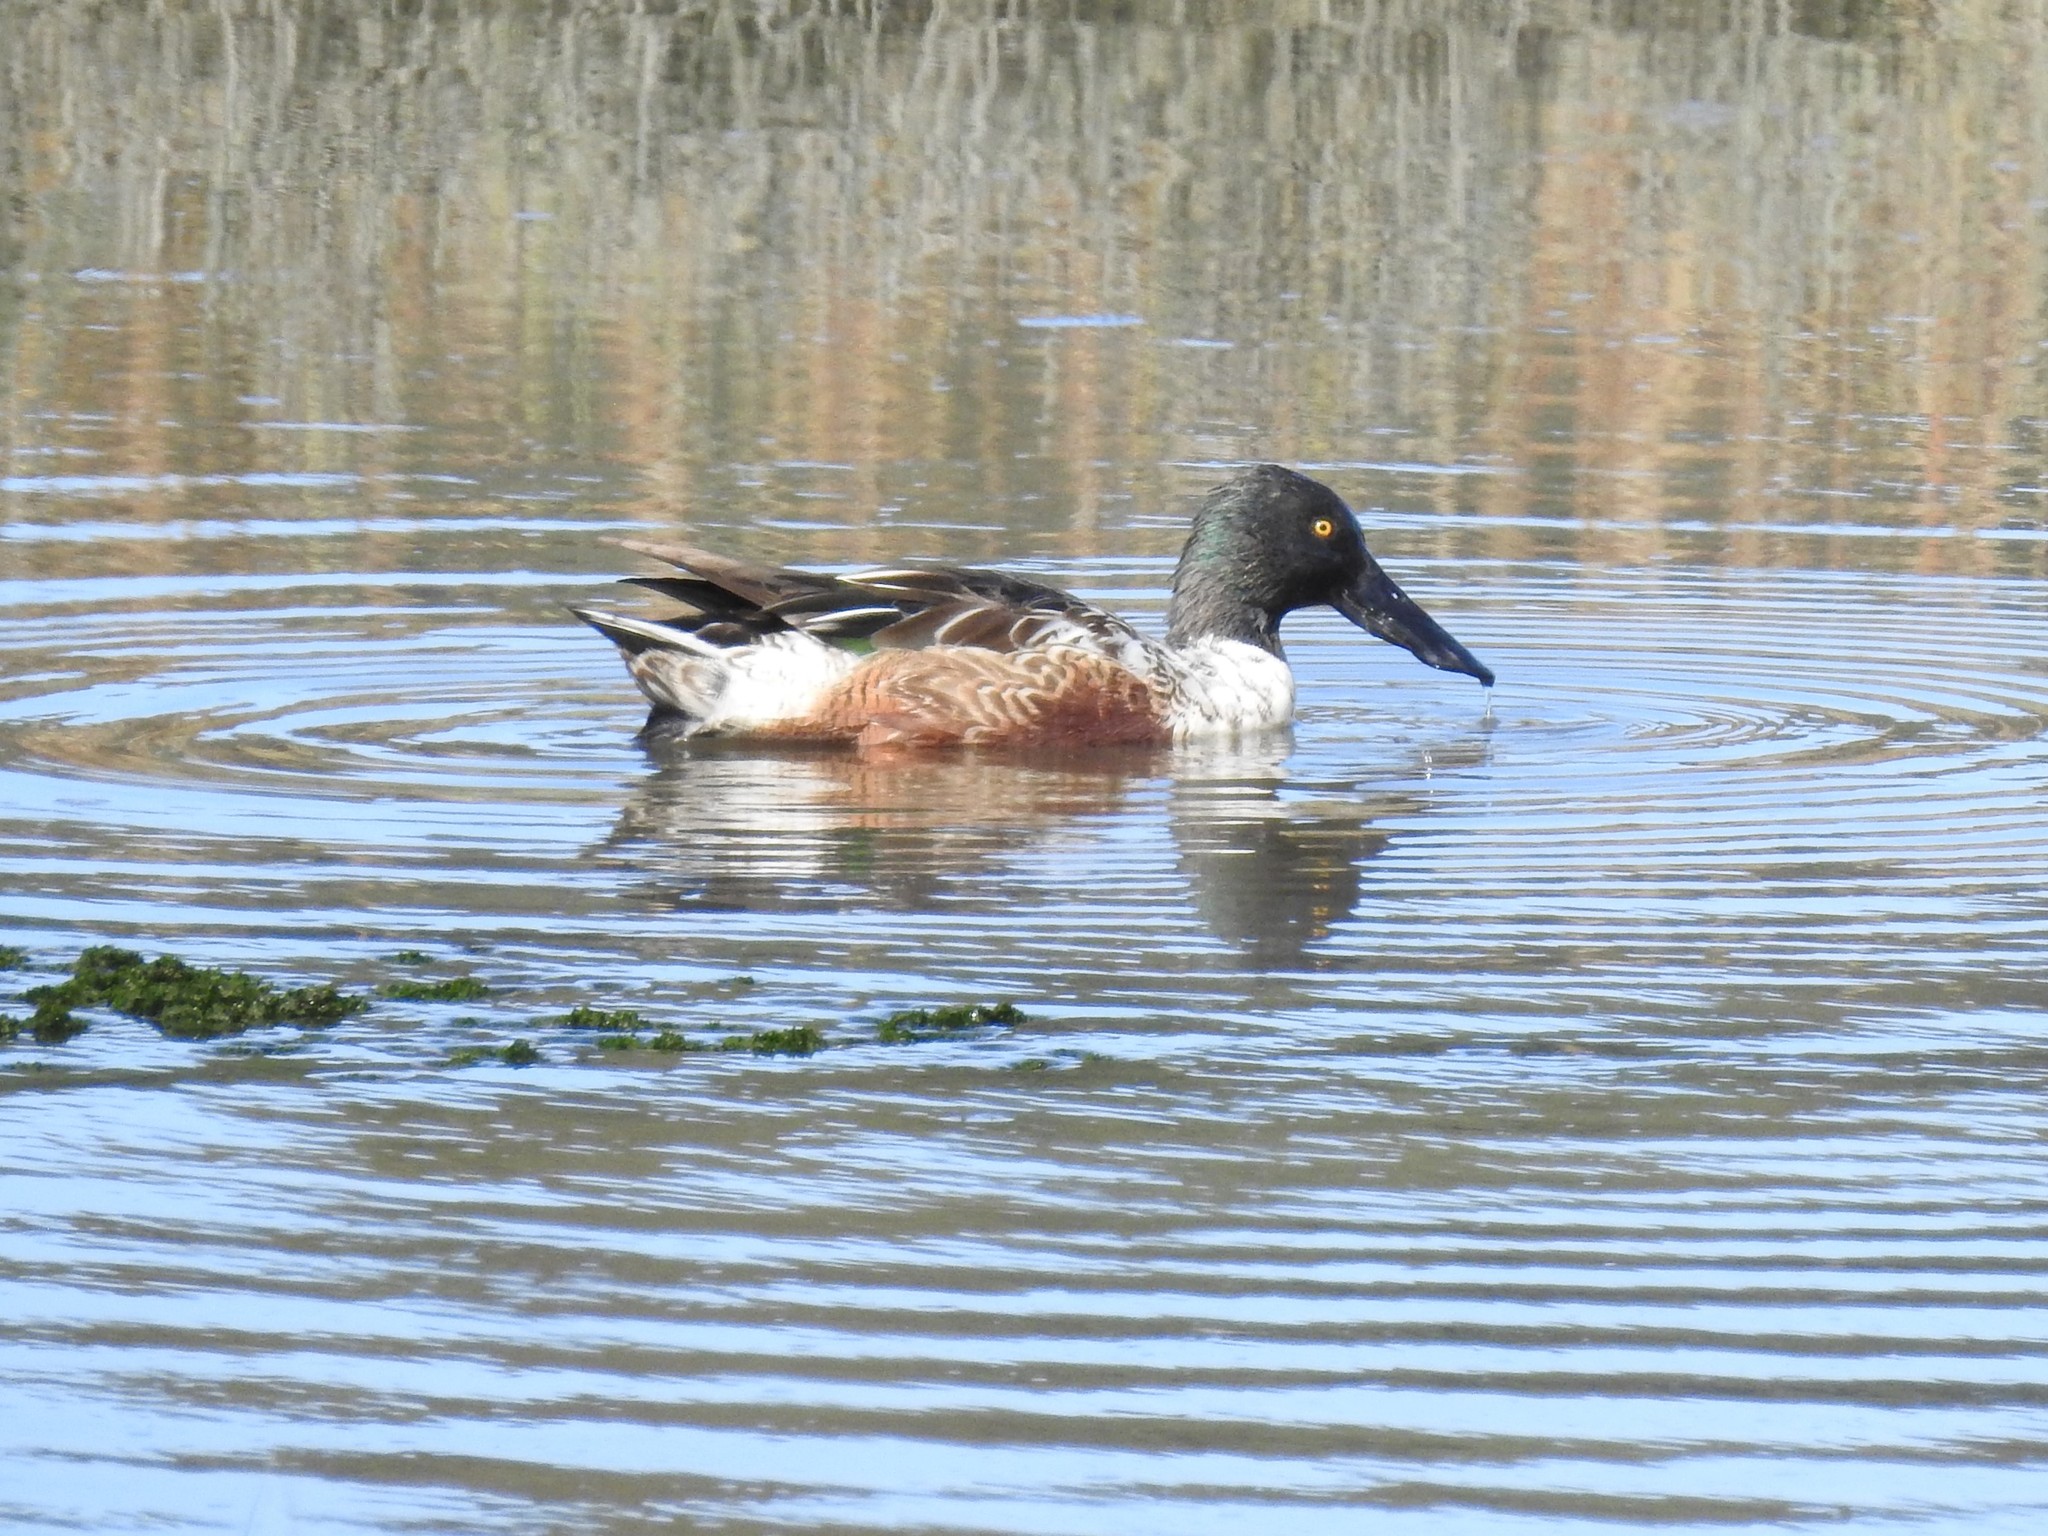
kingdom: Animalia
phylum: Chordata
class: Aves
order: Anseriformes
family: Anatidae
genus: Spatula
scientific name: Spatula clypeata
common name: Northern shoveler
